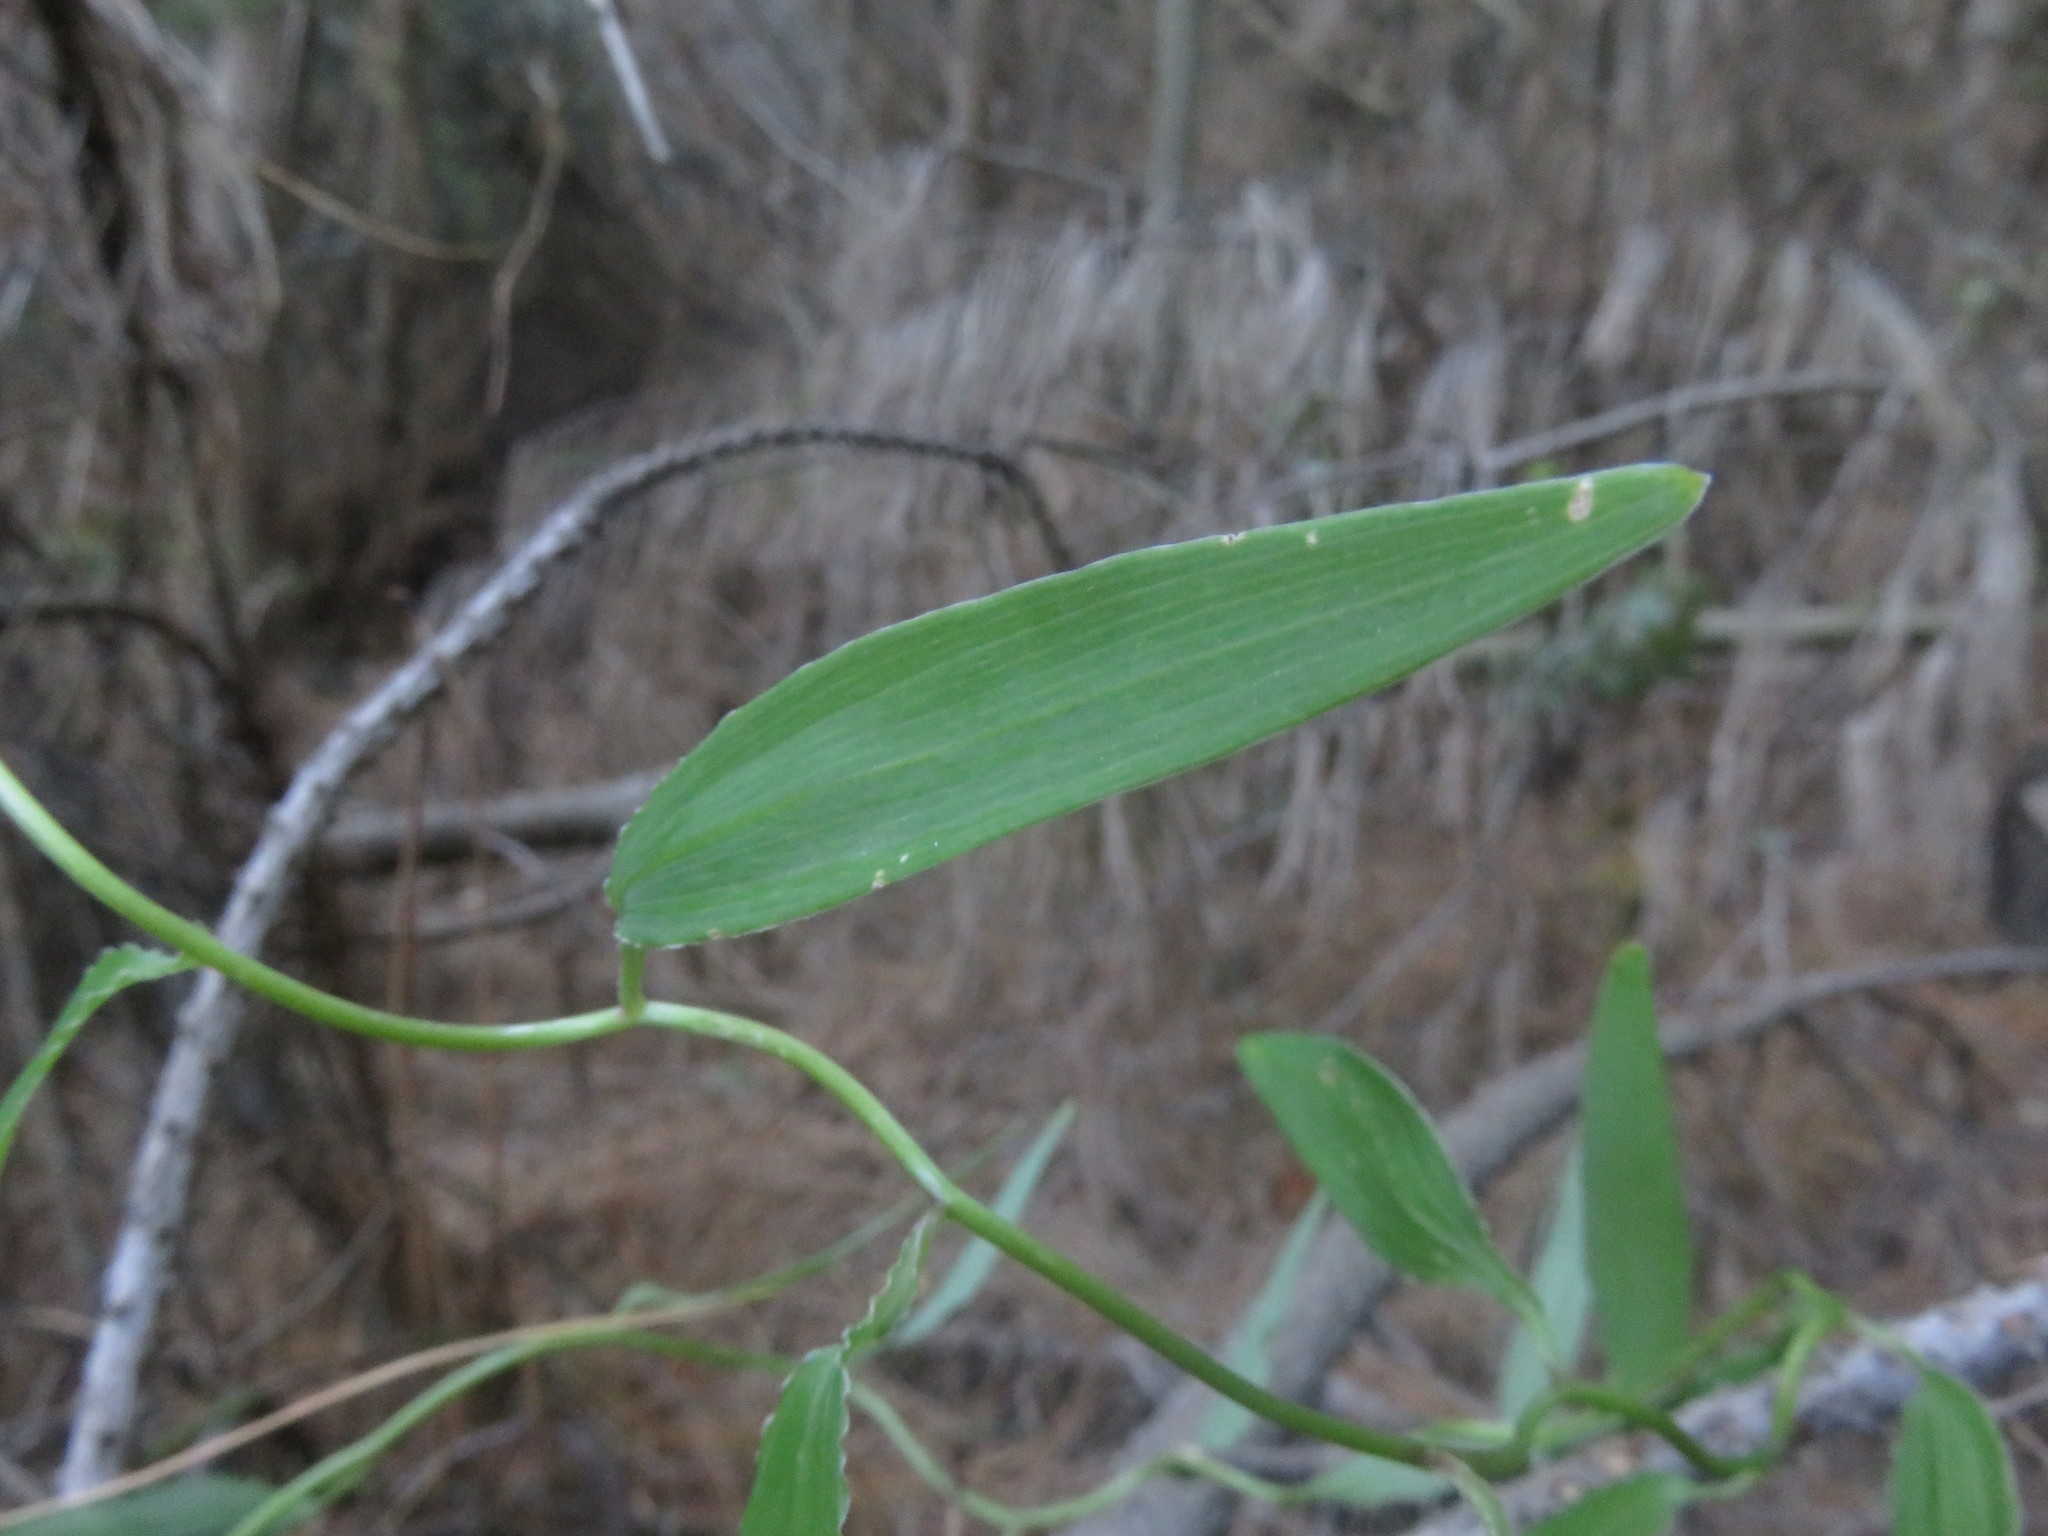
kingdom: Plantae
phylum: Tracheophyta
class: Liliopsida
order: Liliales
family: Alstroemeriaceae
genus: Bomarea
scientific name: Bomarea salsilla
